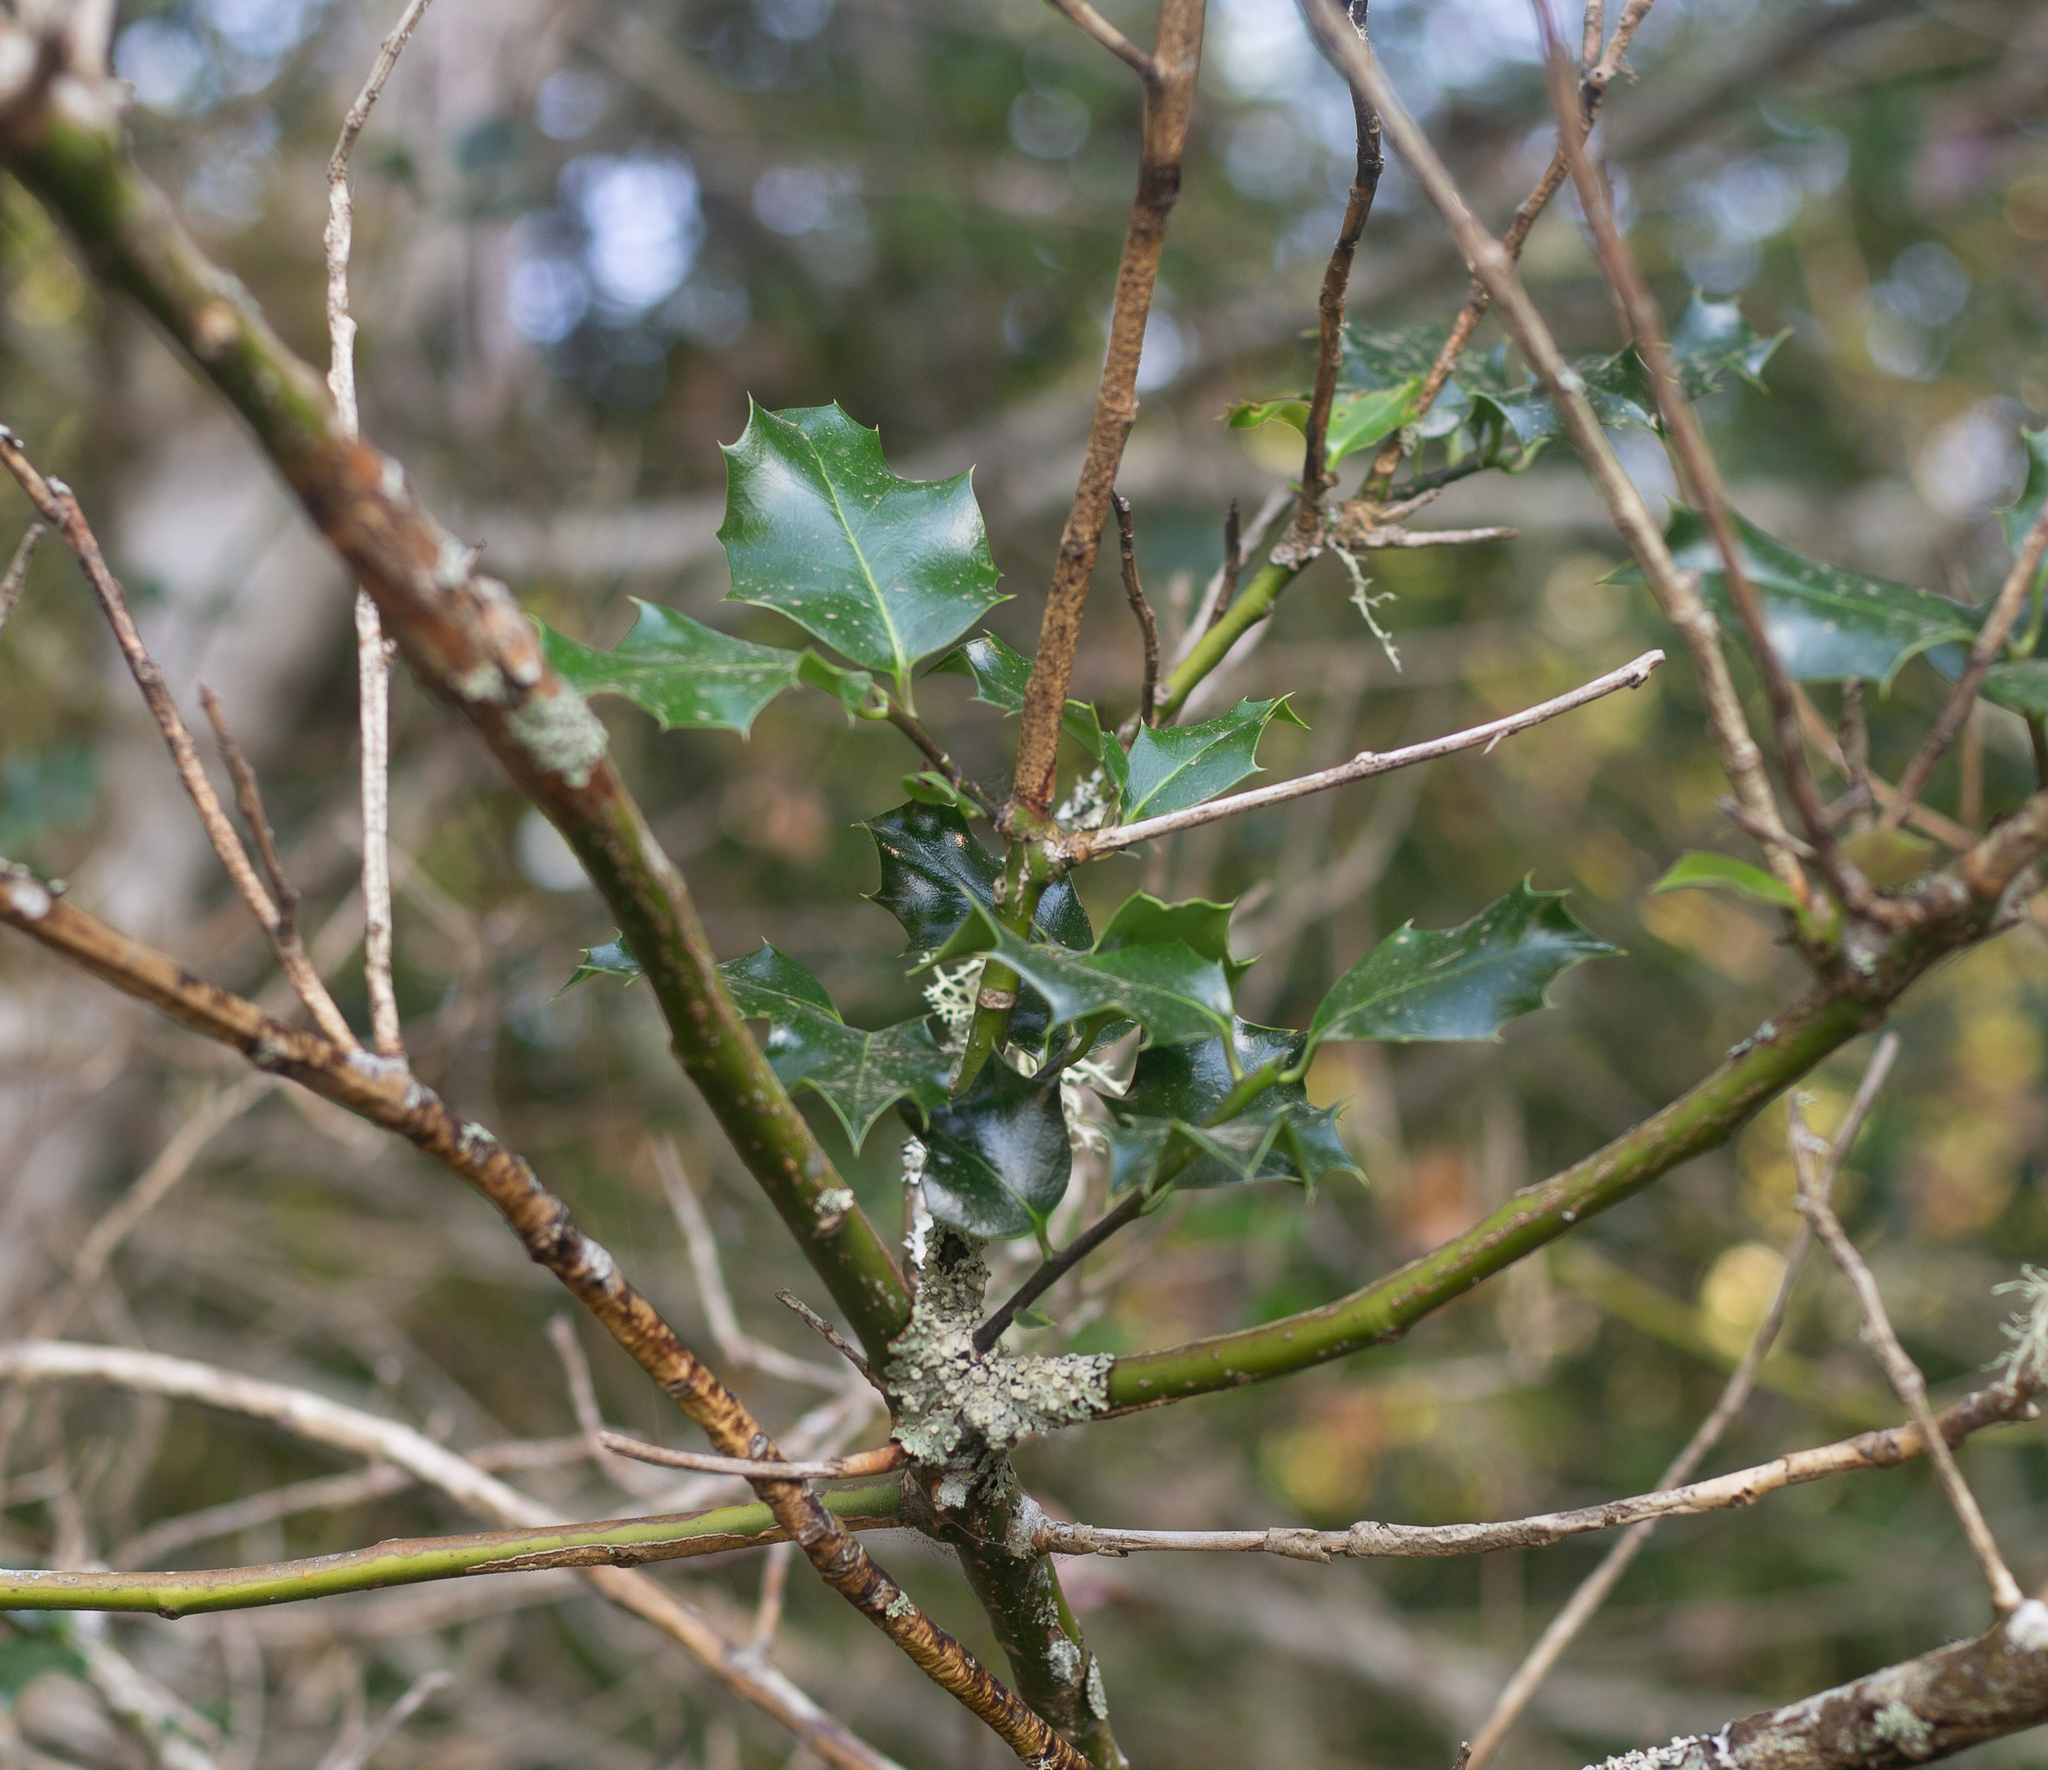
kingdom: Plantae
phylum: Tracheophyta
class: Magnoliopsida
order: Aquifoliales
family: Aquifoliaceae
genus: Ilex
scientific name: Ilex aquifolium
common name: English holly
